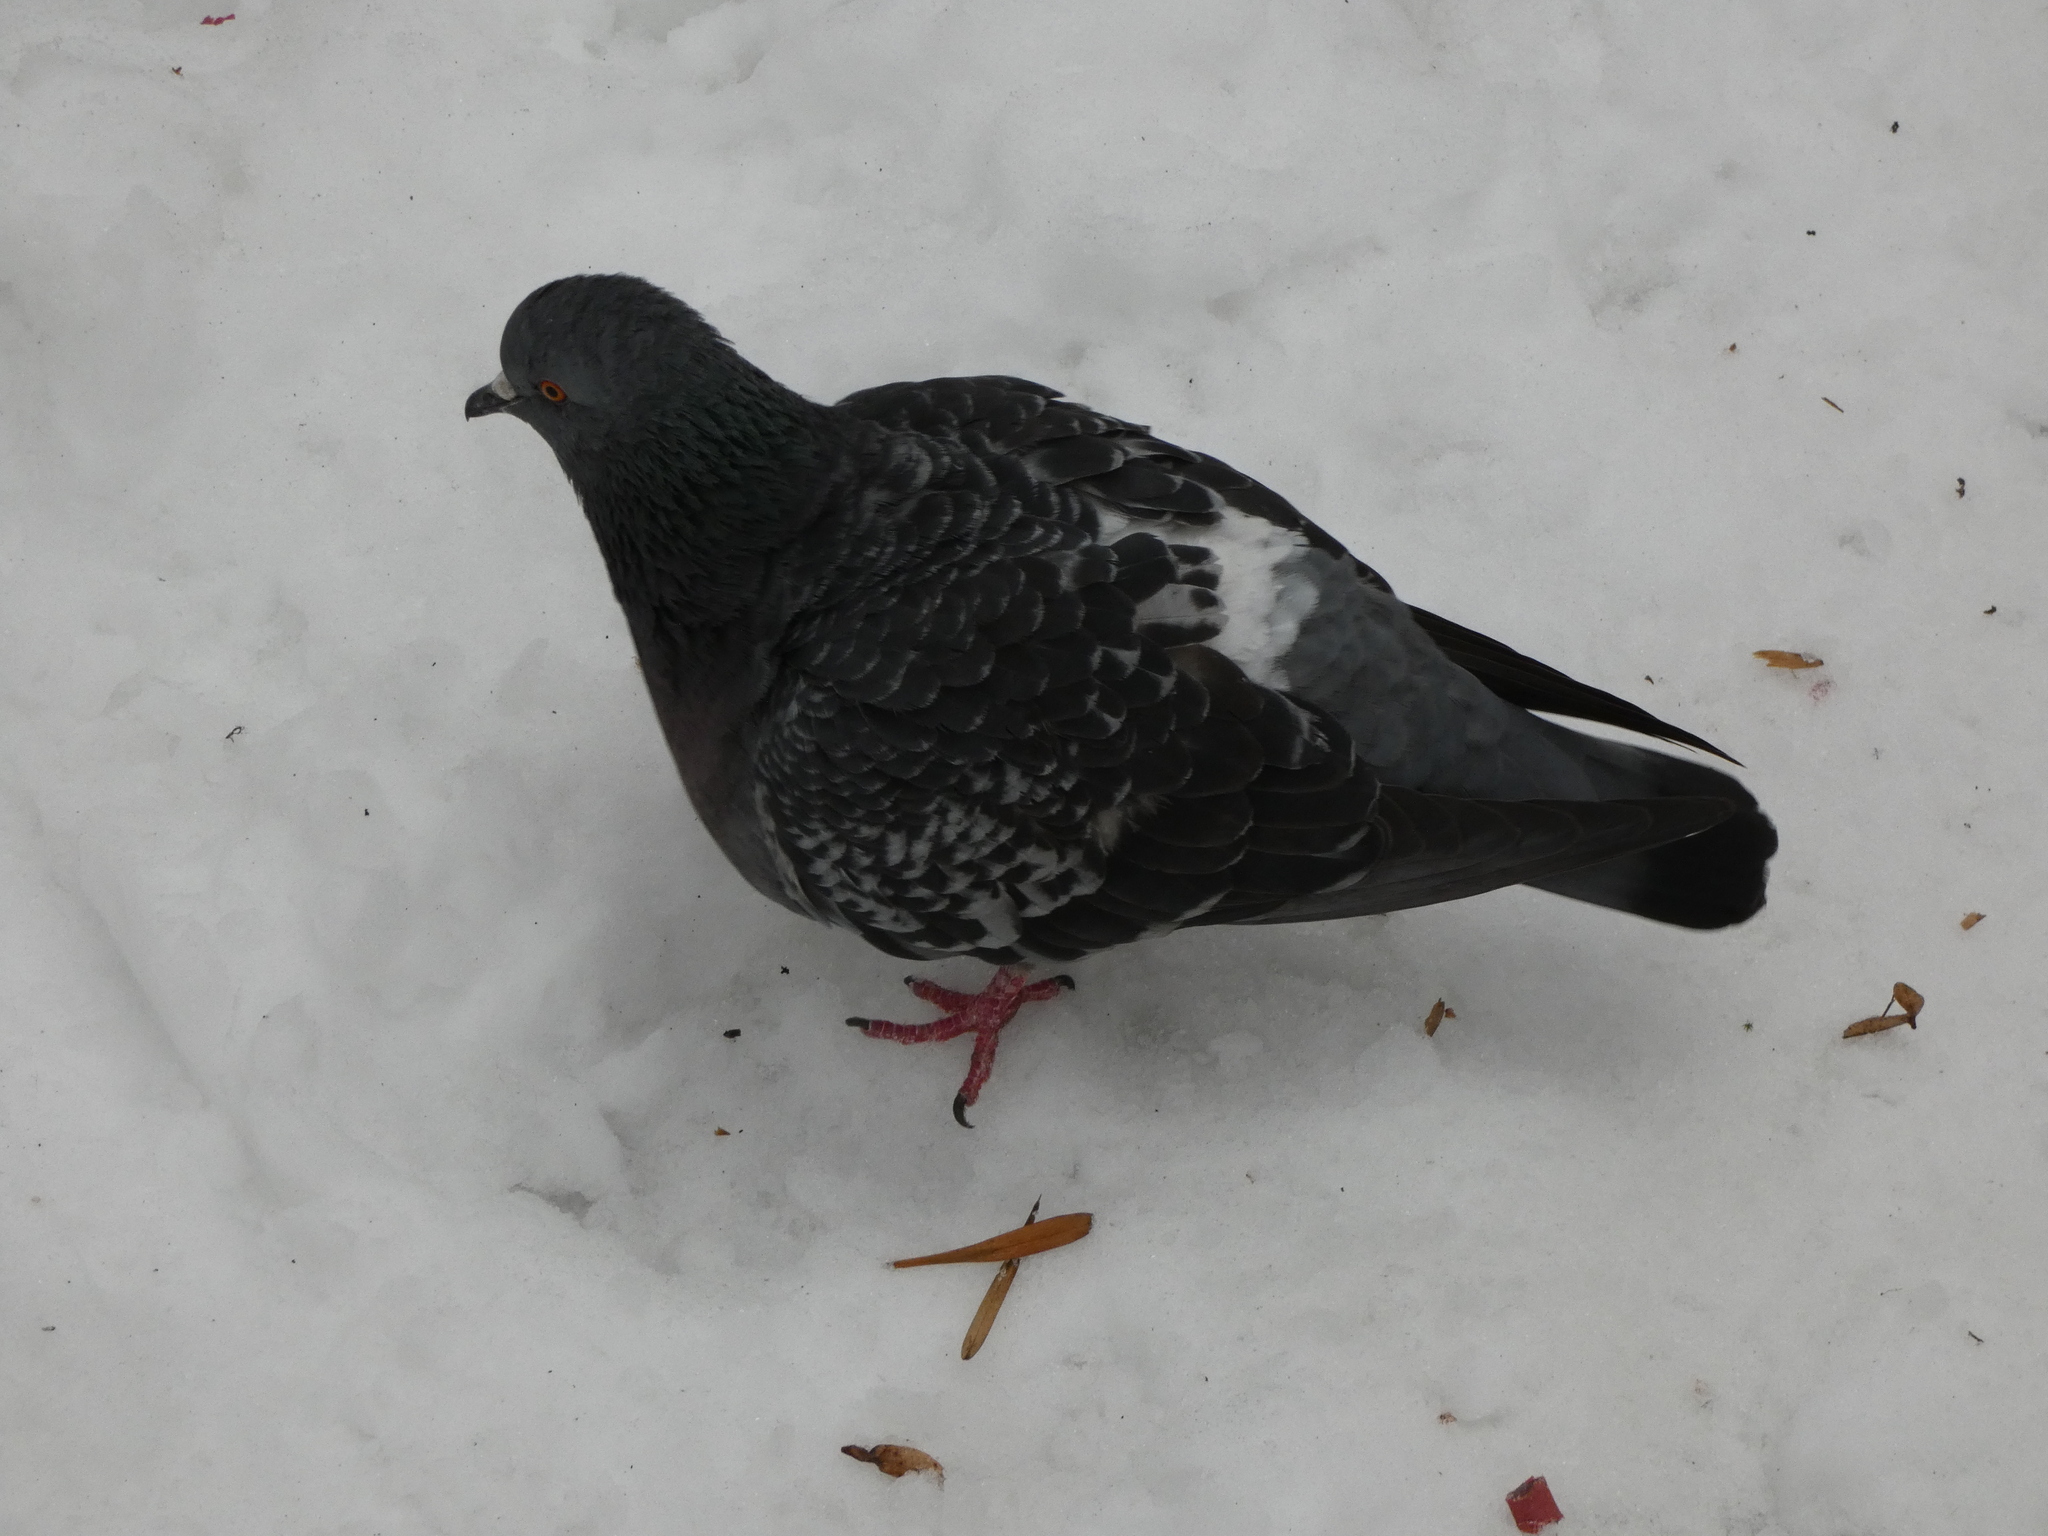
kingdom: Animalia
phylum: Chordata
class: Aves
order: Columbiformes
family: Columbidae
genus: Columba
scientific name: Columba livia
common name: Rock pigeon
